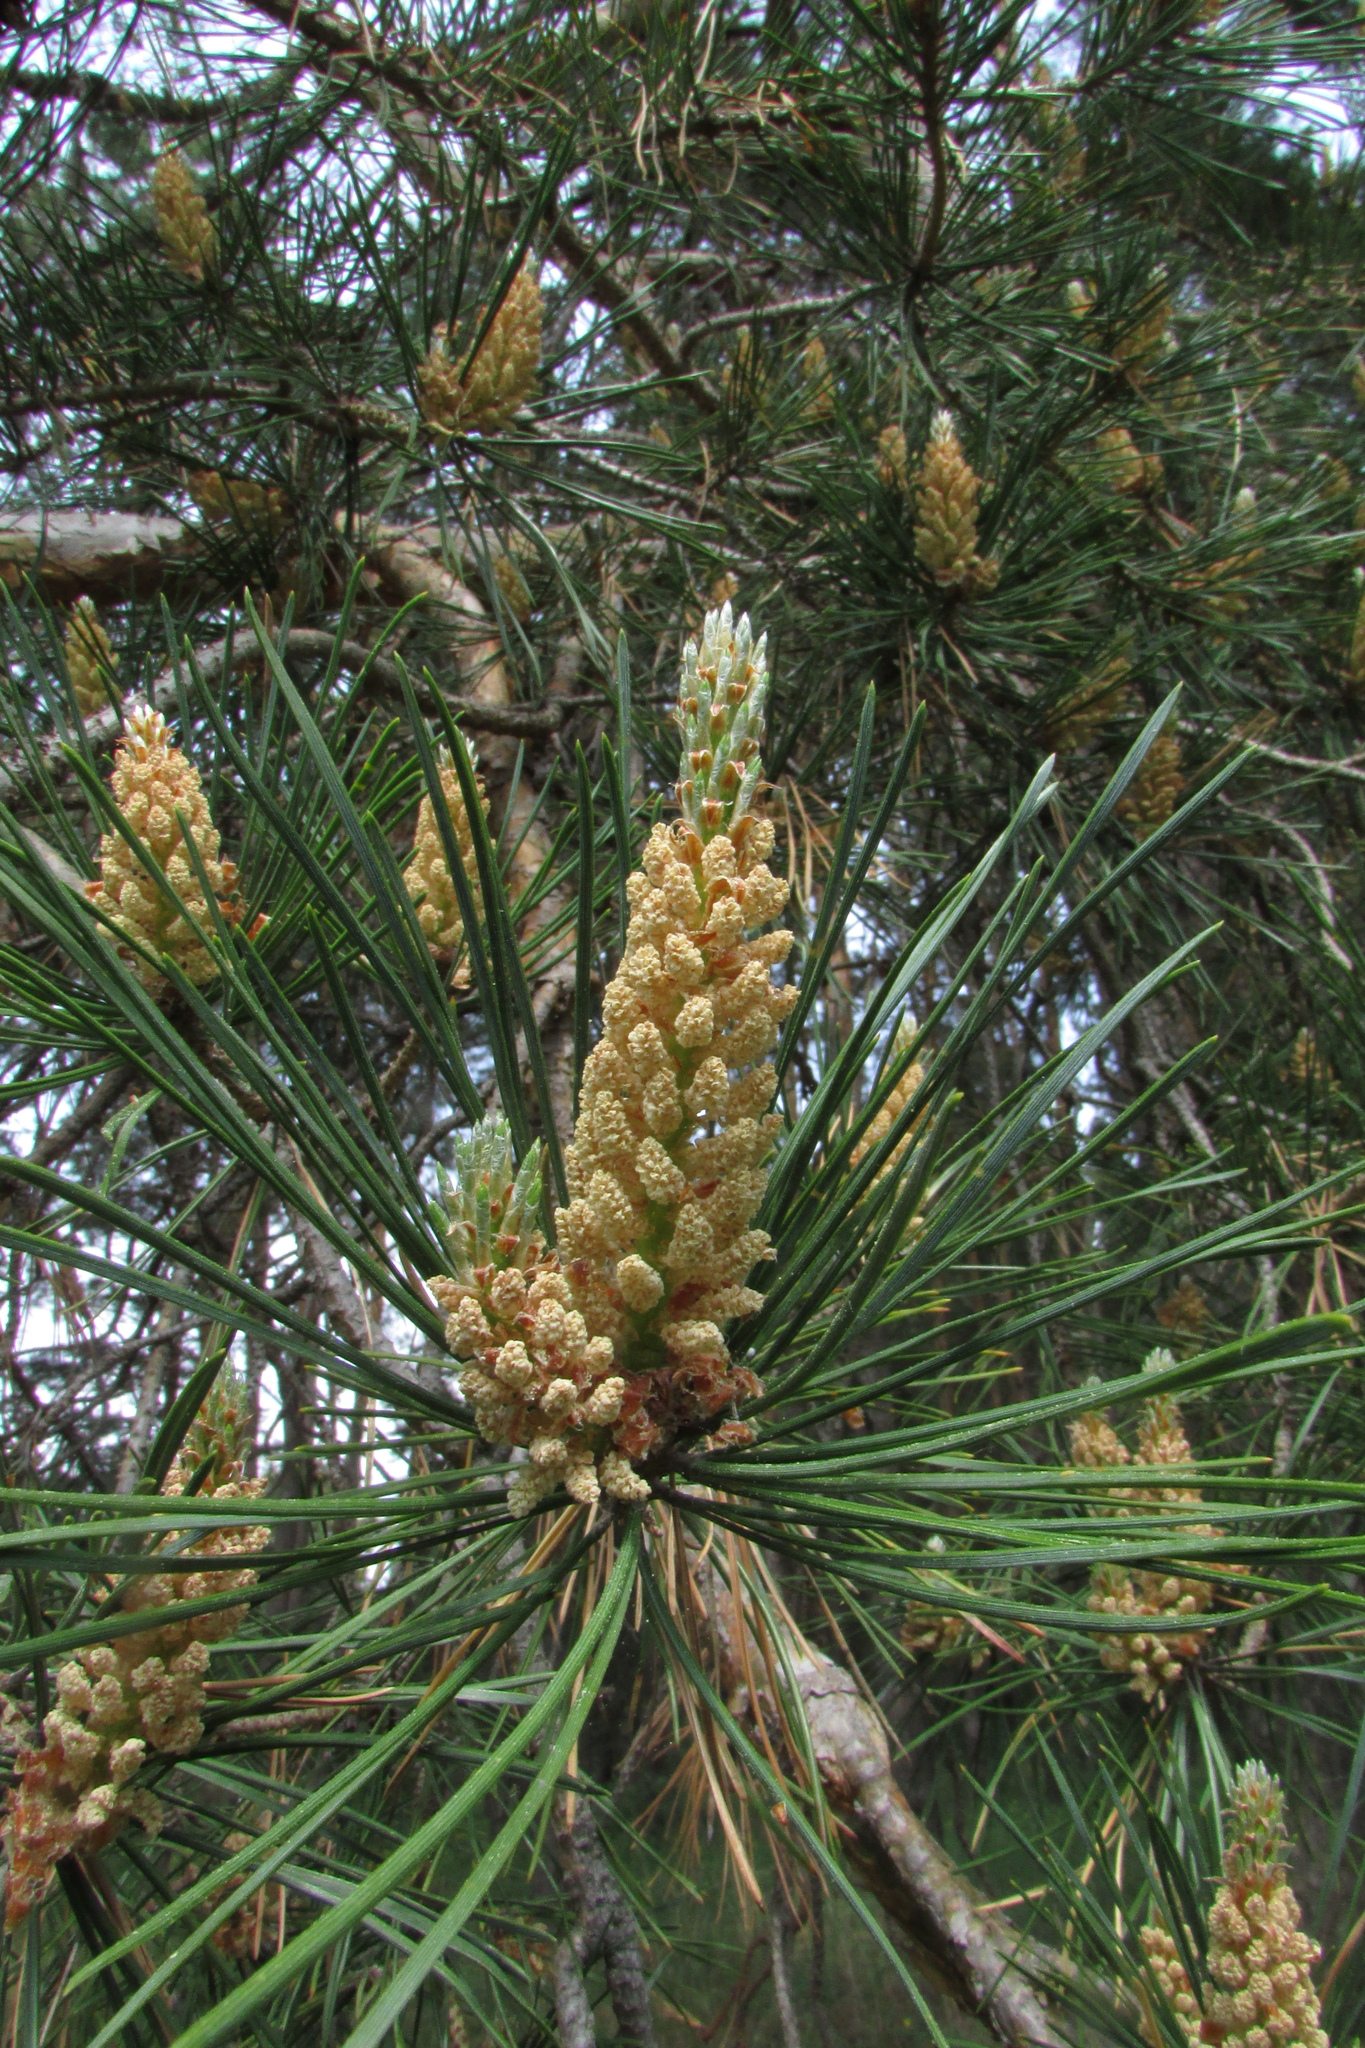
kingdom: Plantae
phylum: Tracheophyta
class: Pinopsida
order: Pinales
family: Pinaceae
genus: Pinus
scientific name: Pinus sylvestris
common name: Scots pine
